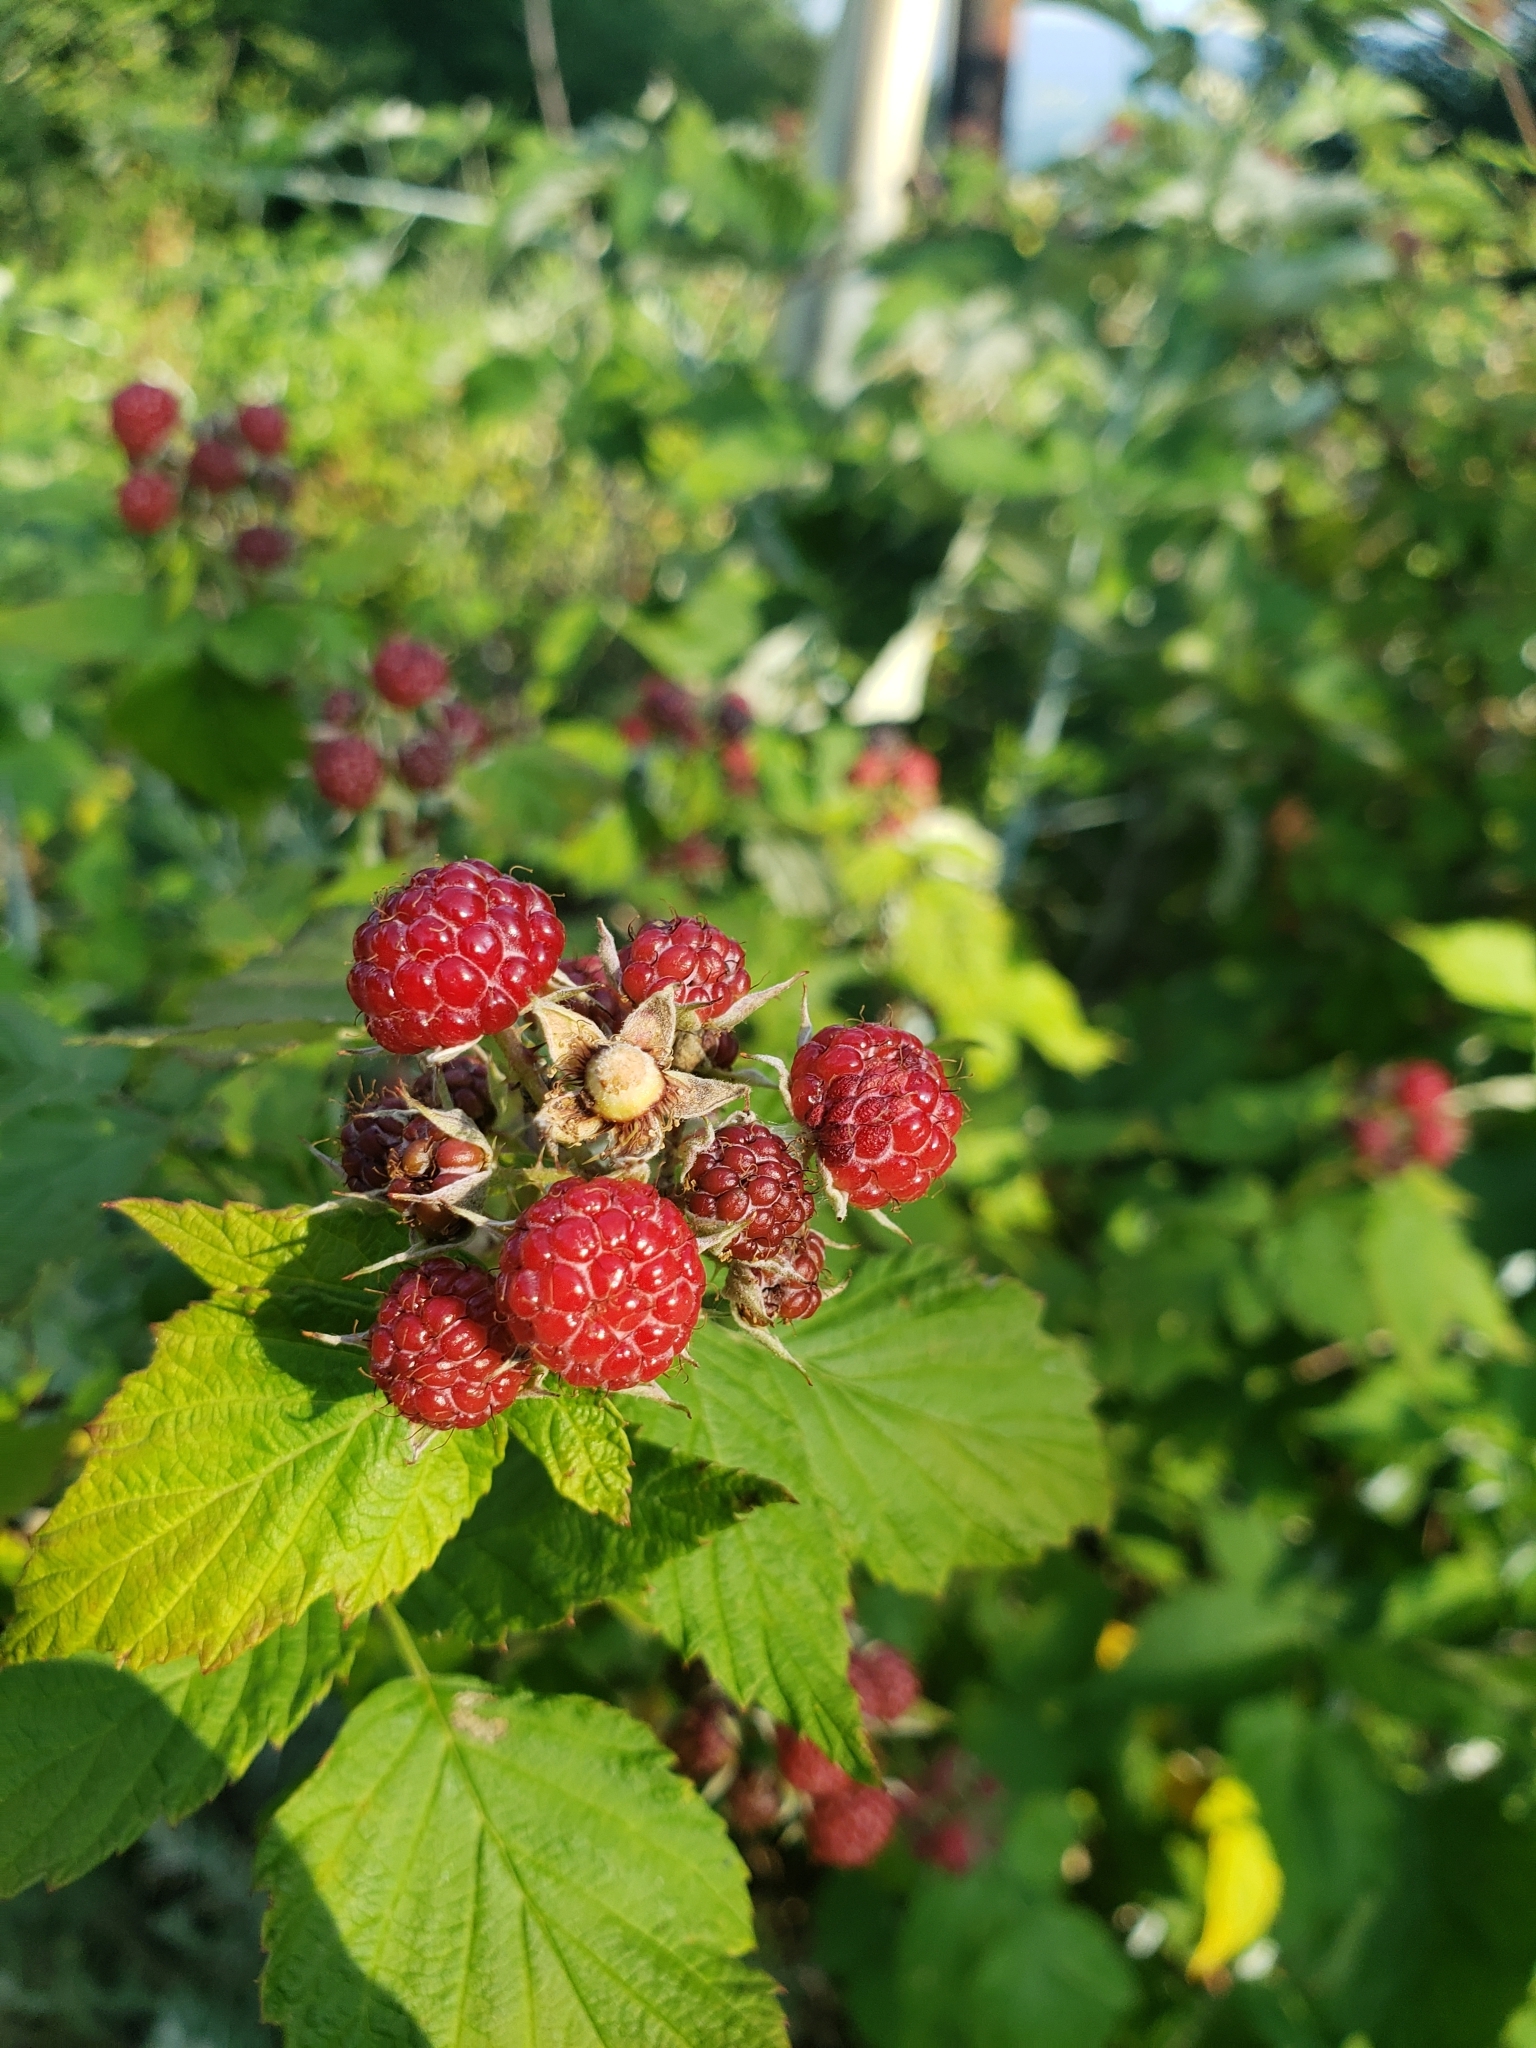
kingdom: Plantae
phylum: Tracheophyta
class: Magnoliopsida
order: Rosales
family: Rosaceae
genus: Rubus
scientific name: Rubus occidentalis
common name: Black raspberry
